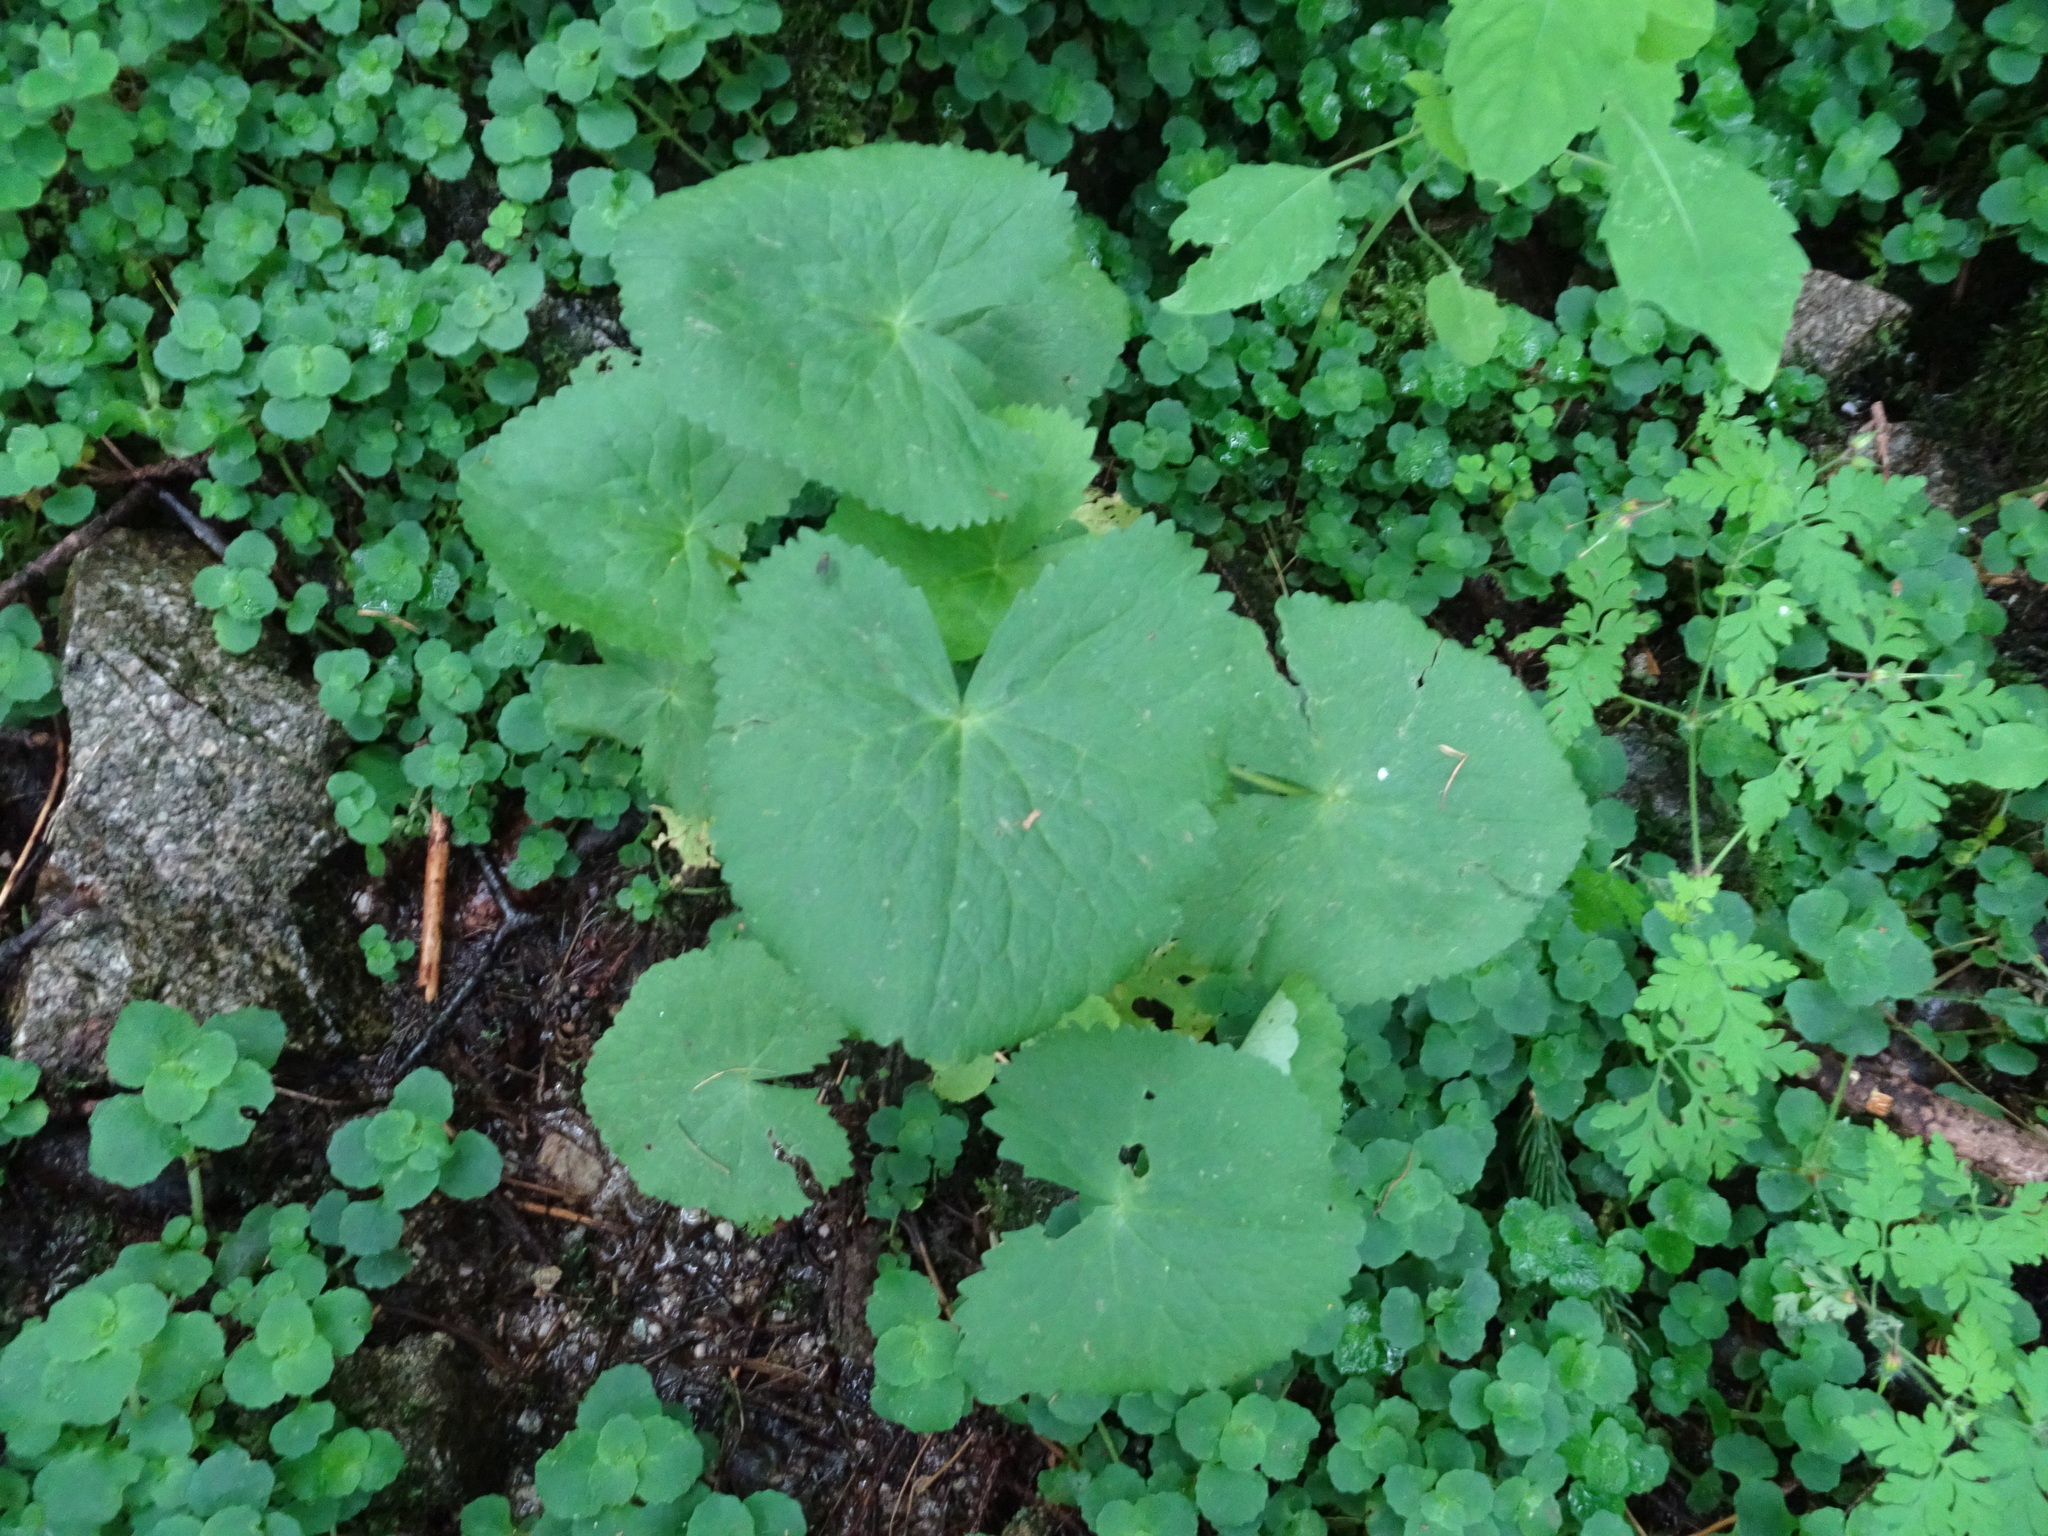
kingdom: Plantae
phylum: Tracheophyta
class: Magnoliopsida
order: Ranunculales
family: Ranunculaceae
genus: Caltha
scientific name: Caltha palustris
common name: Marsh marigold
